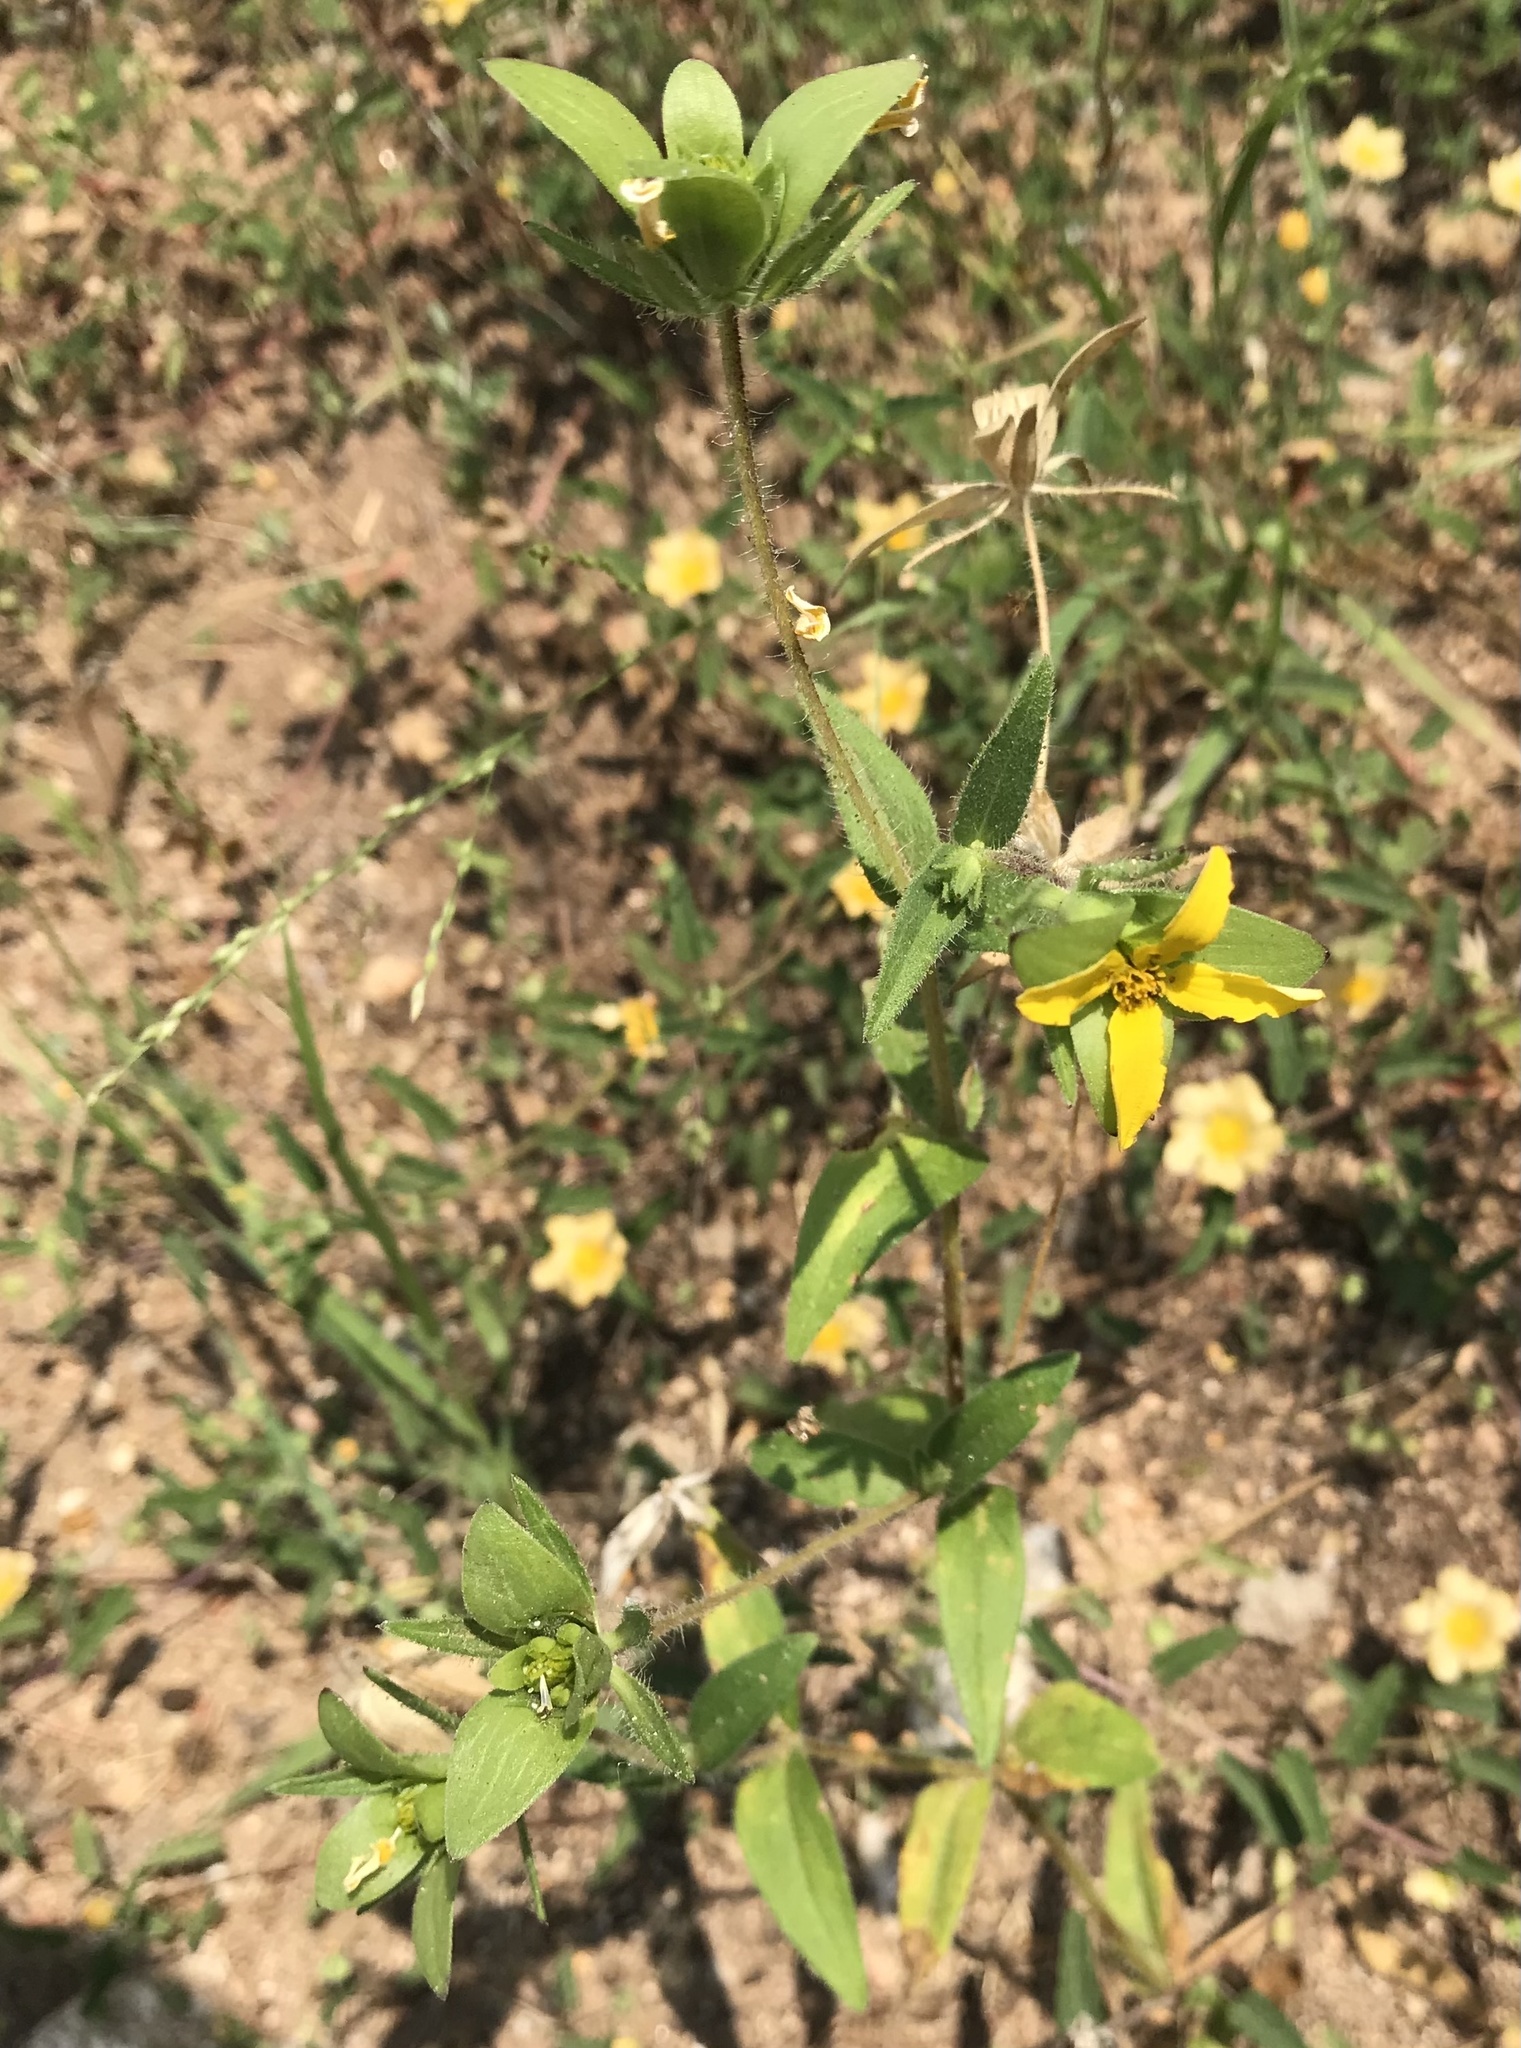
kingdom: Plantae
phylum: Tracheophyta
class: Magnoliopsida
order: Asterales
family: Asteraceae
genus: Lindheimera
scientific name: Lindheimera texana
